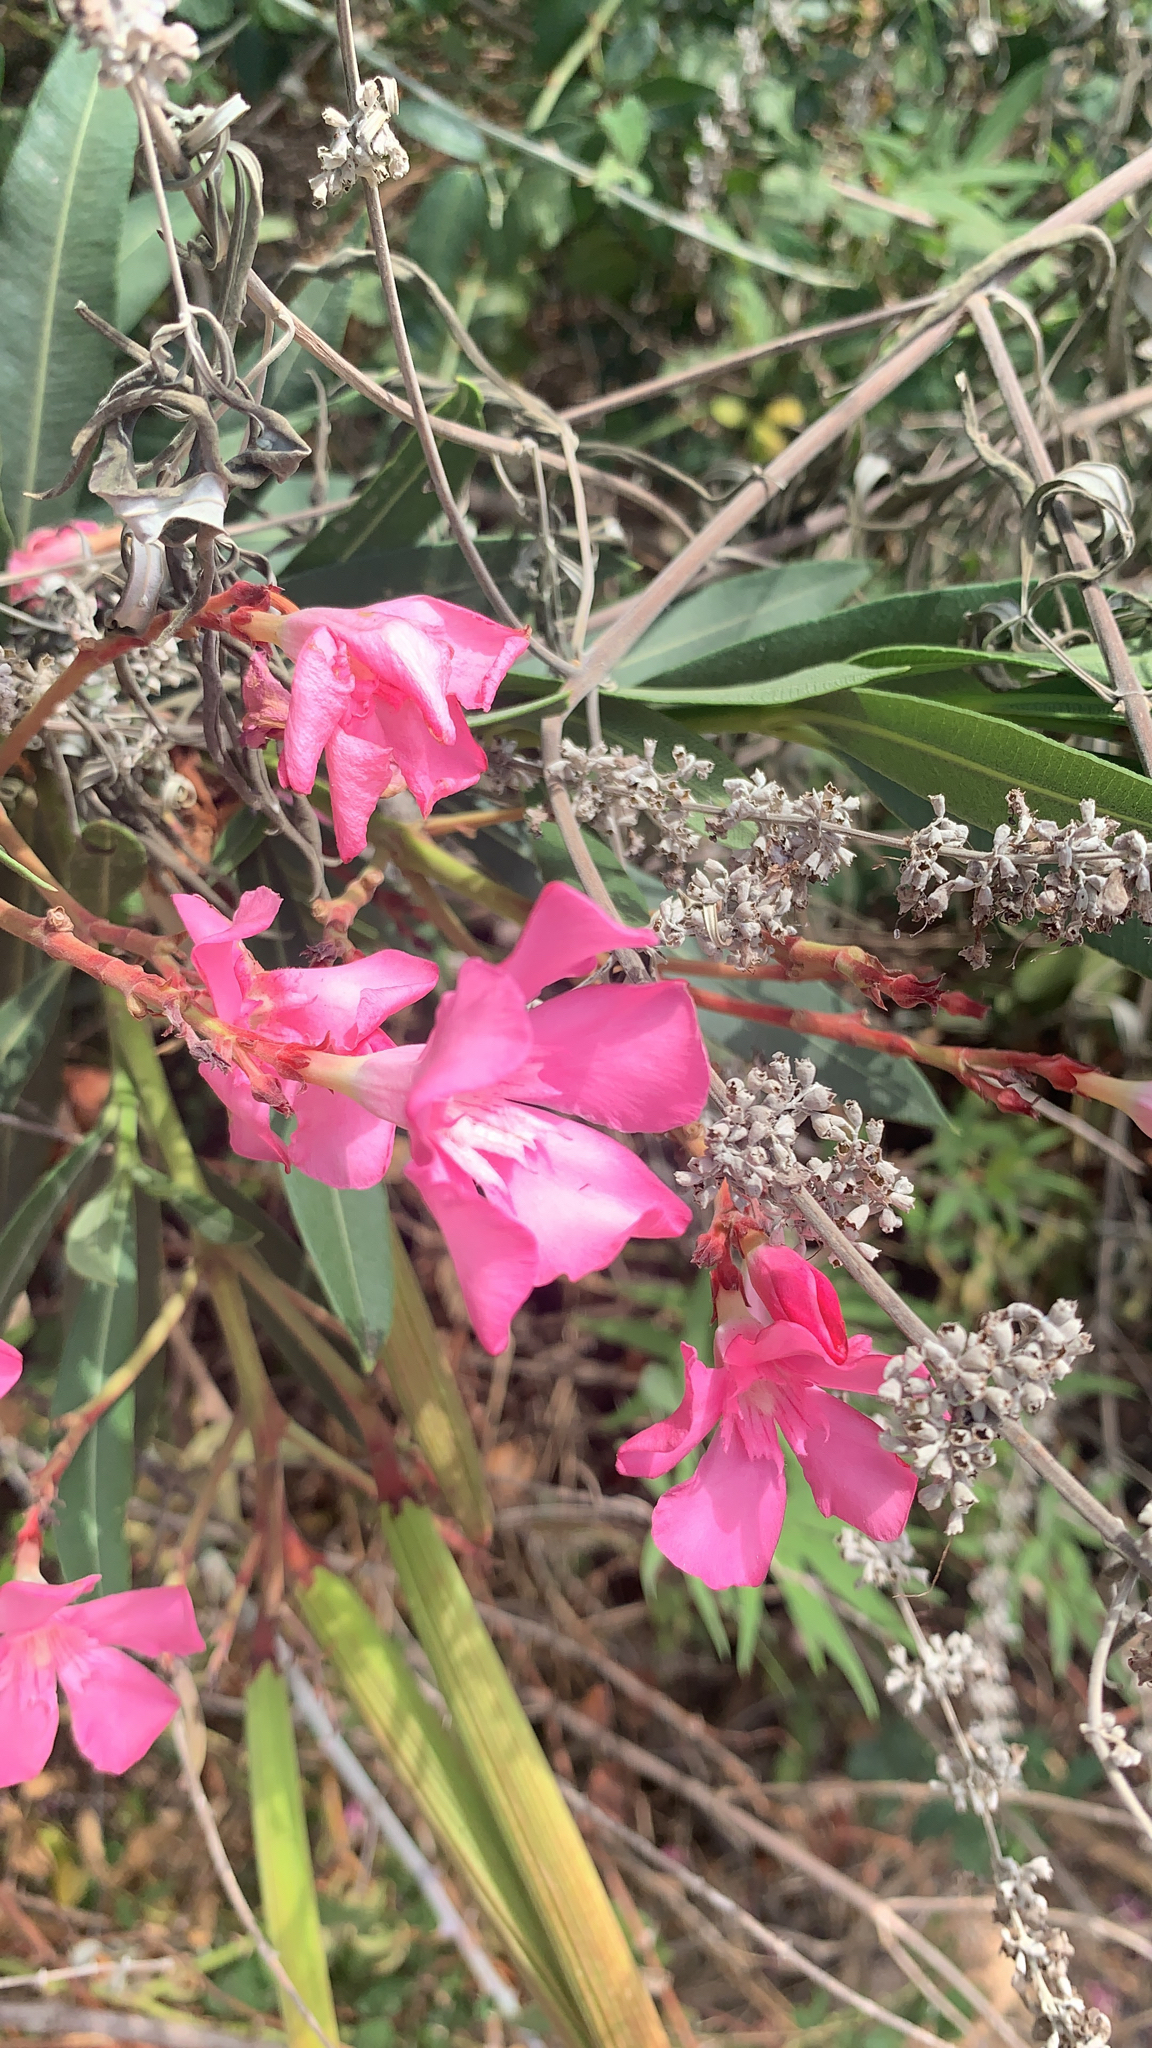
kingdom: Plantae
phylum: Tracheophyta
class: Magnoliopsida
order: Gentianales
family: Apocynaceae
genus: Nerium
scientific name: Nerium oleander
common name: Oleander
